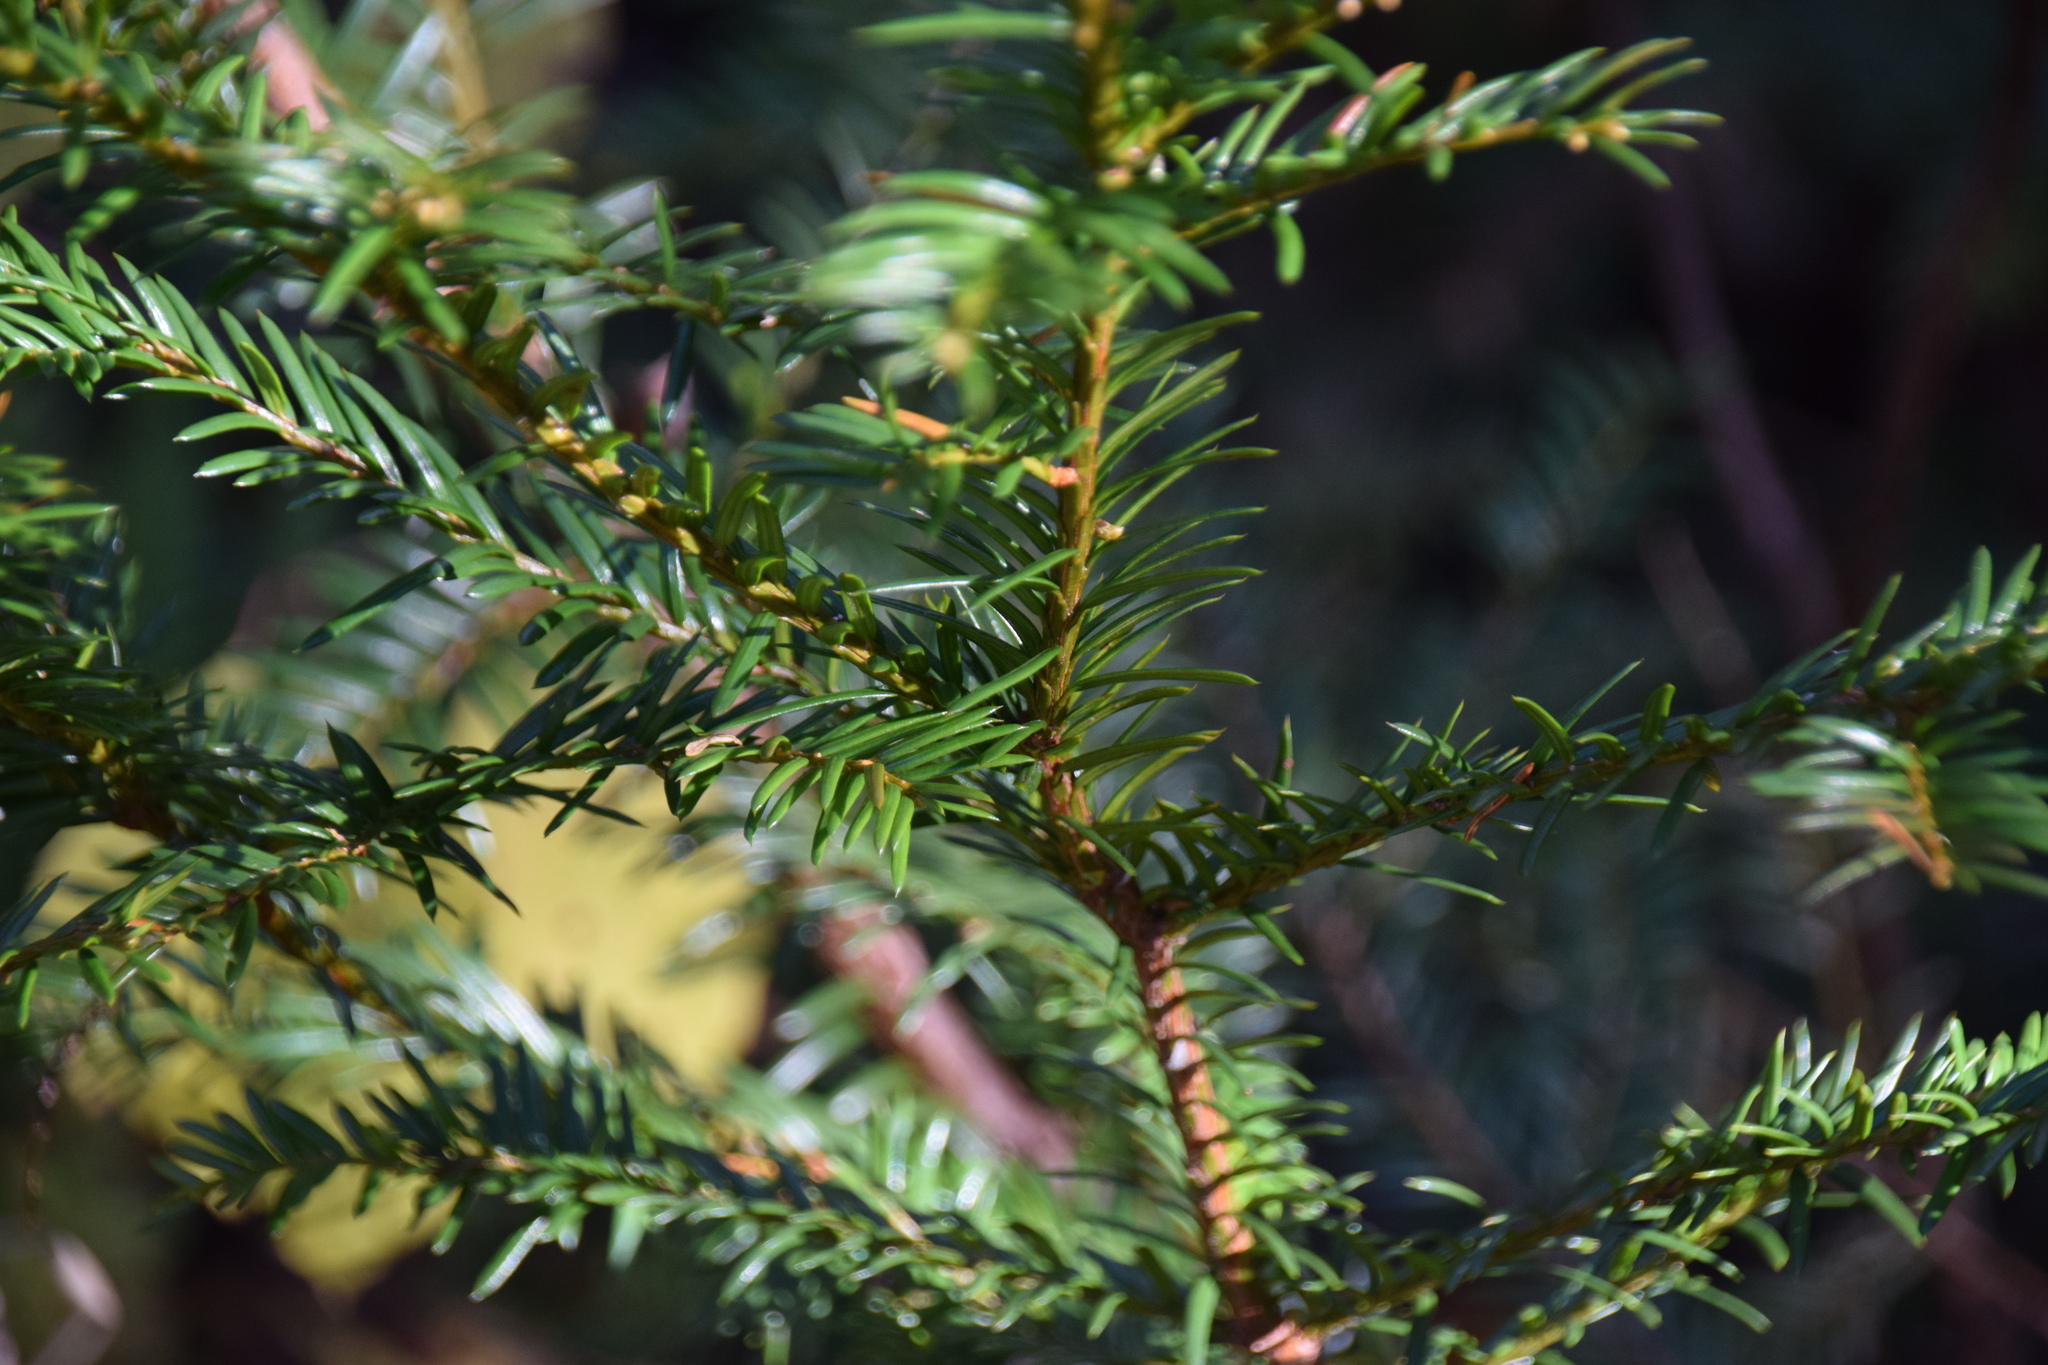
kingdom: Plantae
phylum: Tracheophyta
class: Pinopsida
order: Pinales
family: Taxaceae
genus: Taxus
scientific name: Taxus canadensis
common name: American yew
